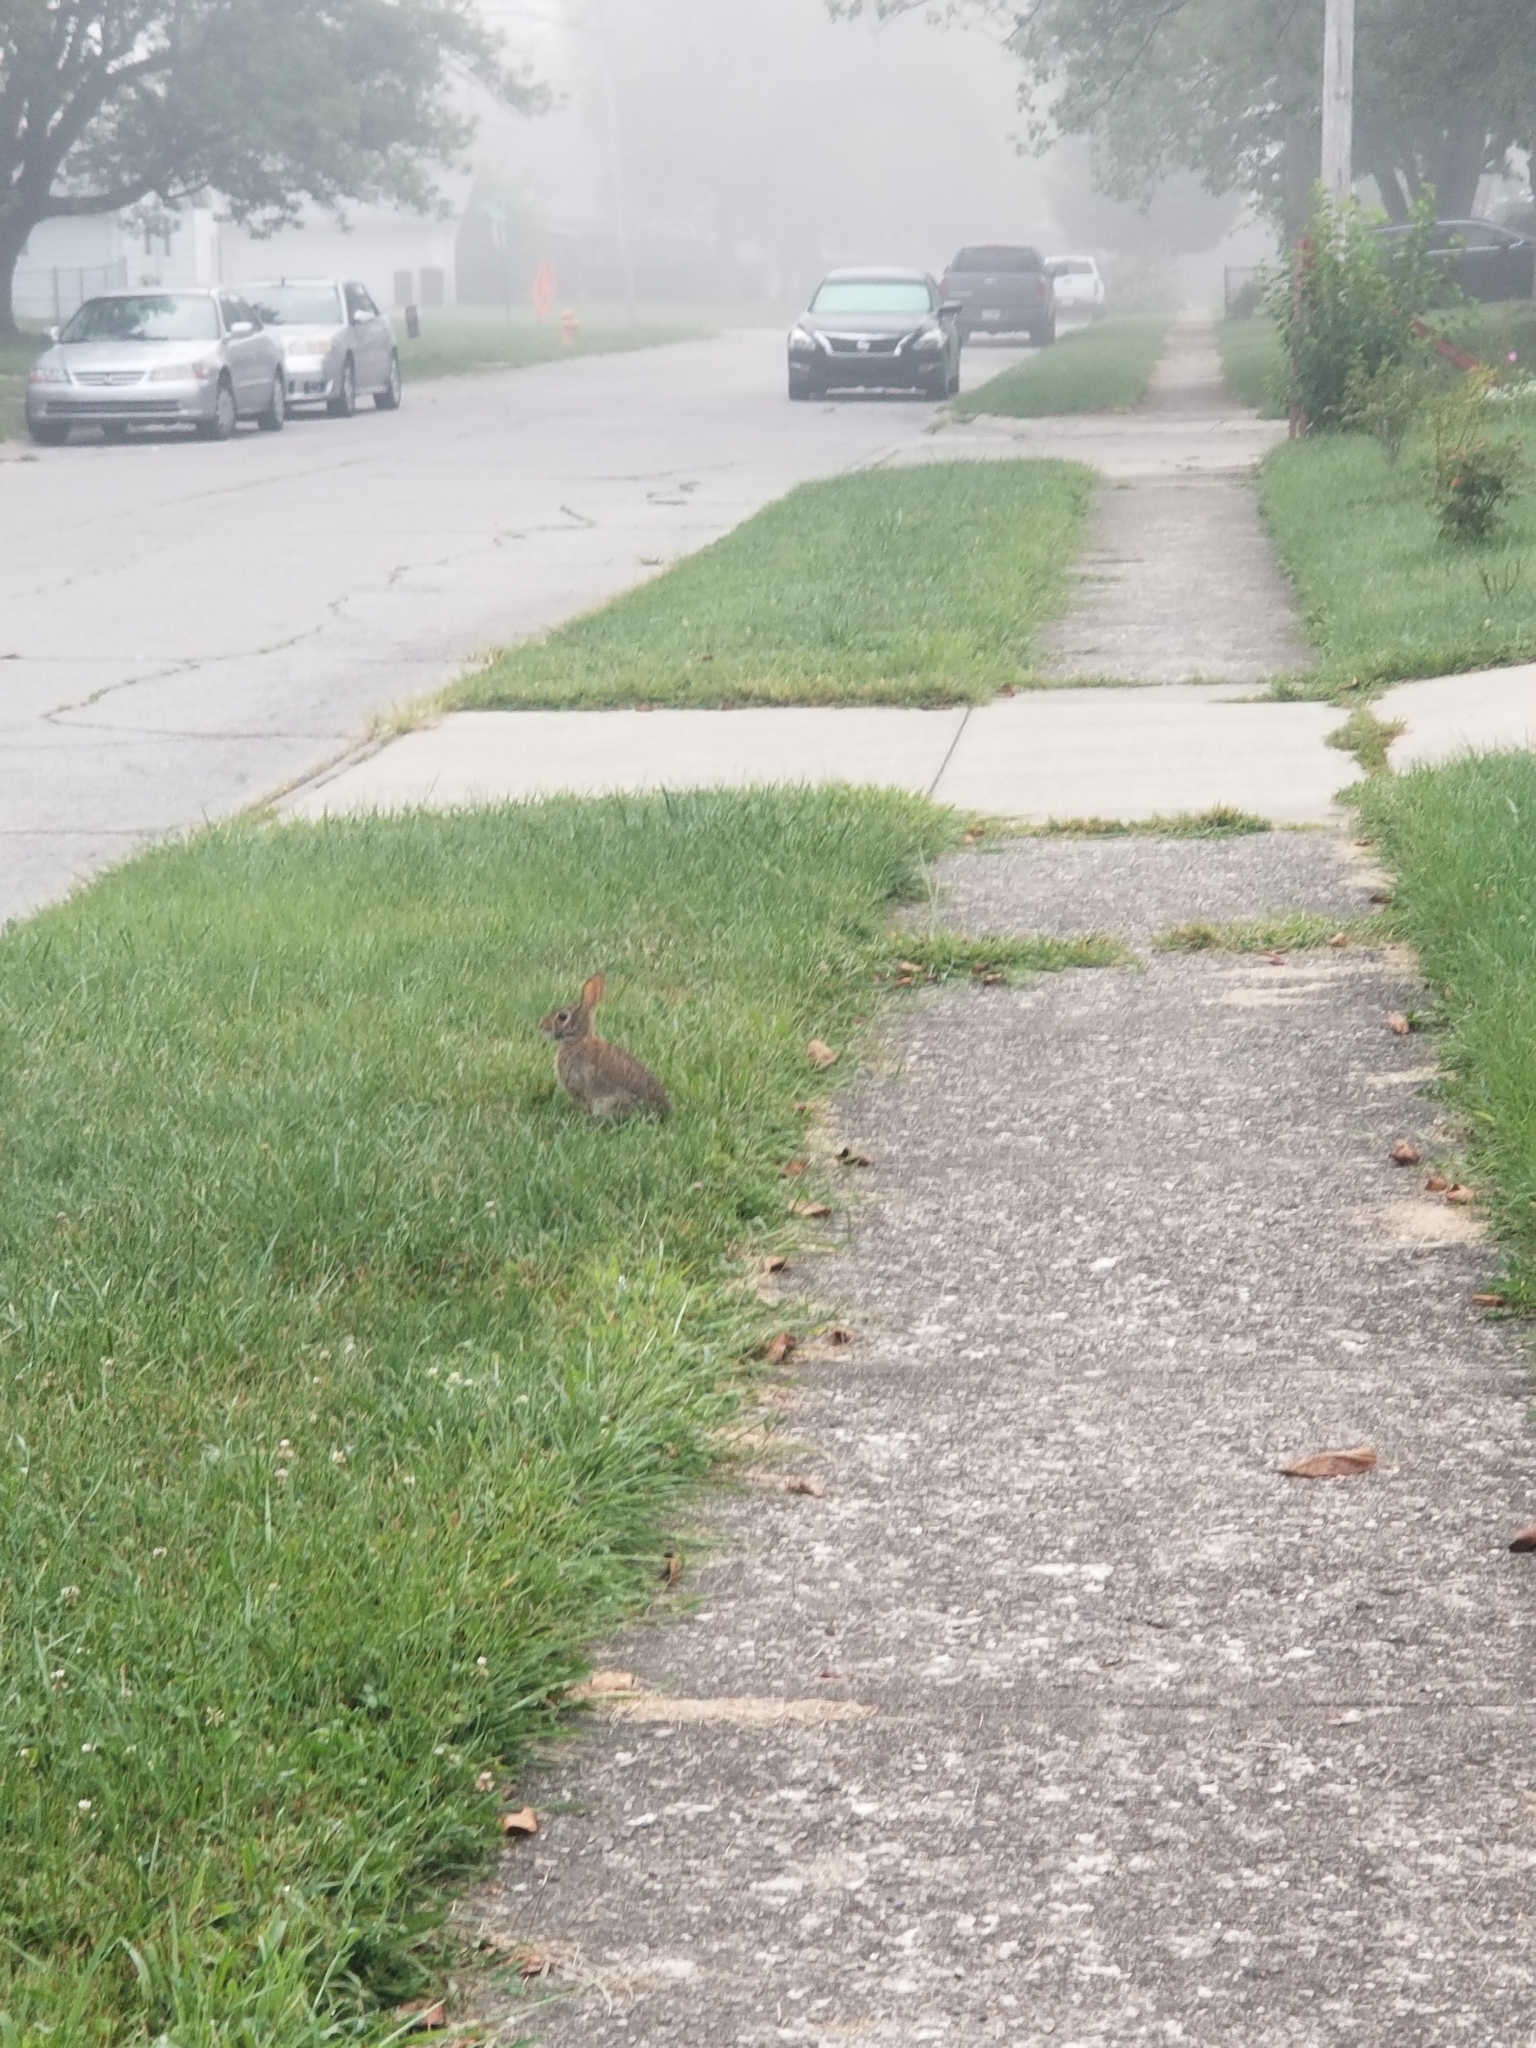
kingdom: Animalia
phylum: Chordata
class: Mammalia
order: Lagomorpha
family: Leporidae
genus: Sylvilagus
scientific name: Sylvilagus floridanus
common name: Eastern cottontail
